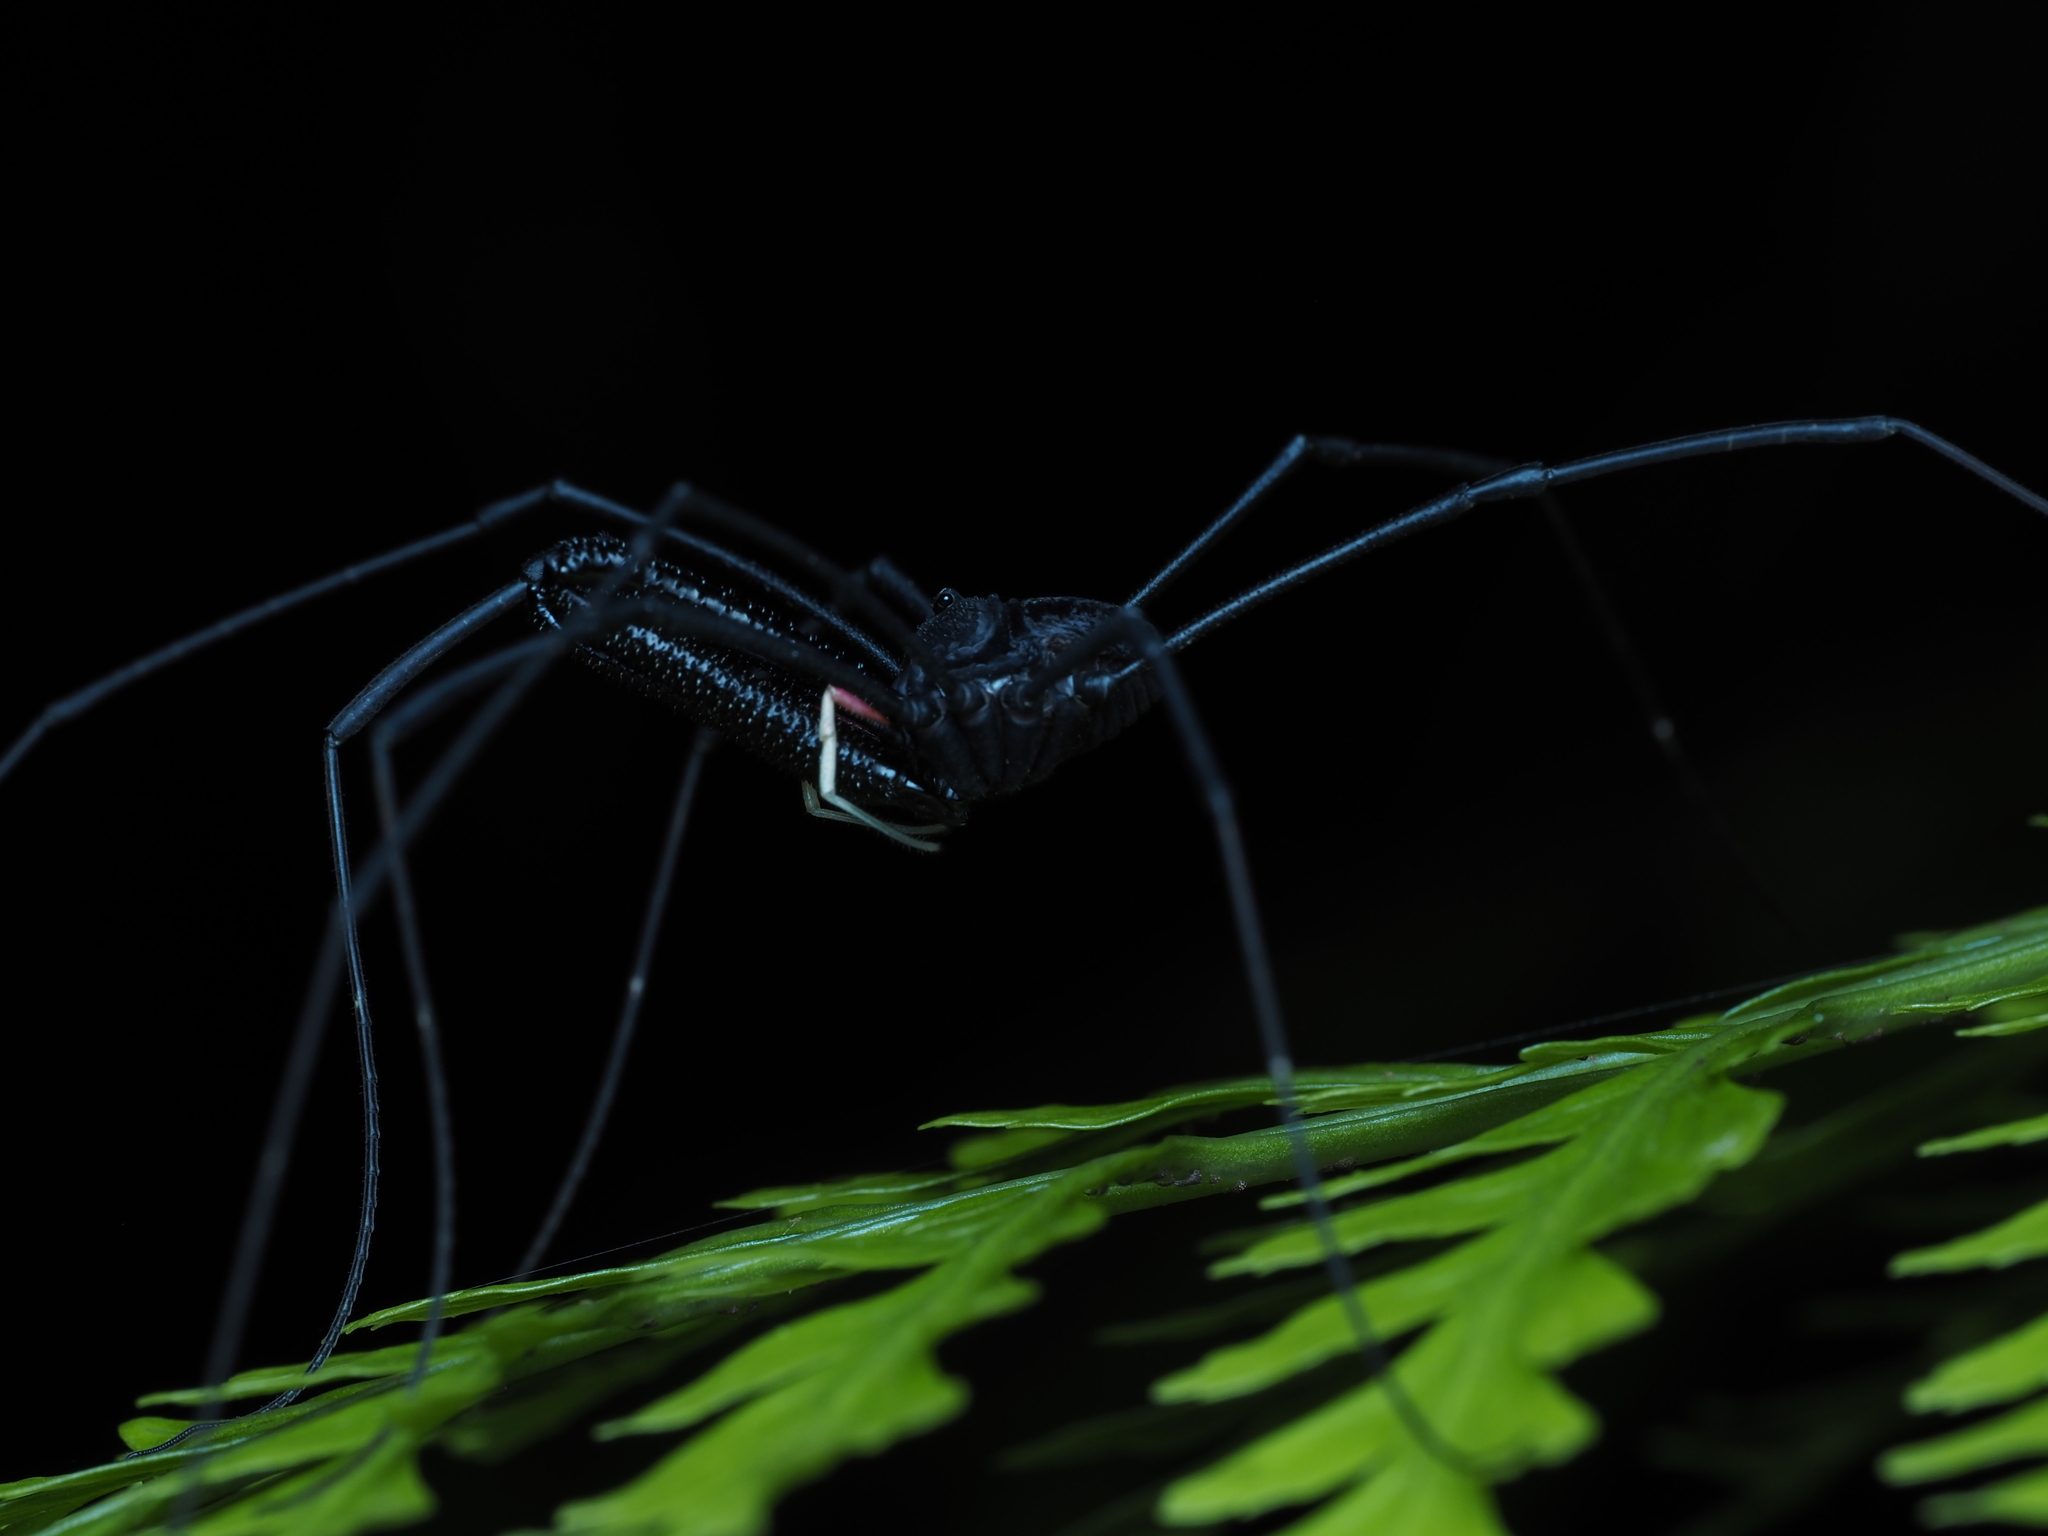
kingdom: Animalia
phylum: Arthropoda
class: Arachnida
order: Opiliones
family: Neopilionidae
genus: Forsteropsalis
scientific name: Forsteropsalis inconstans
